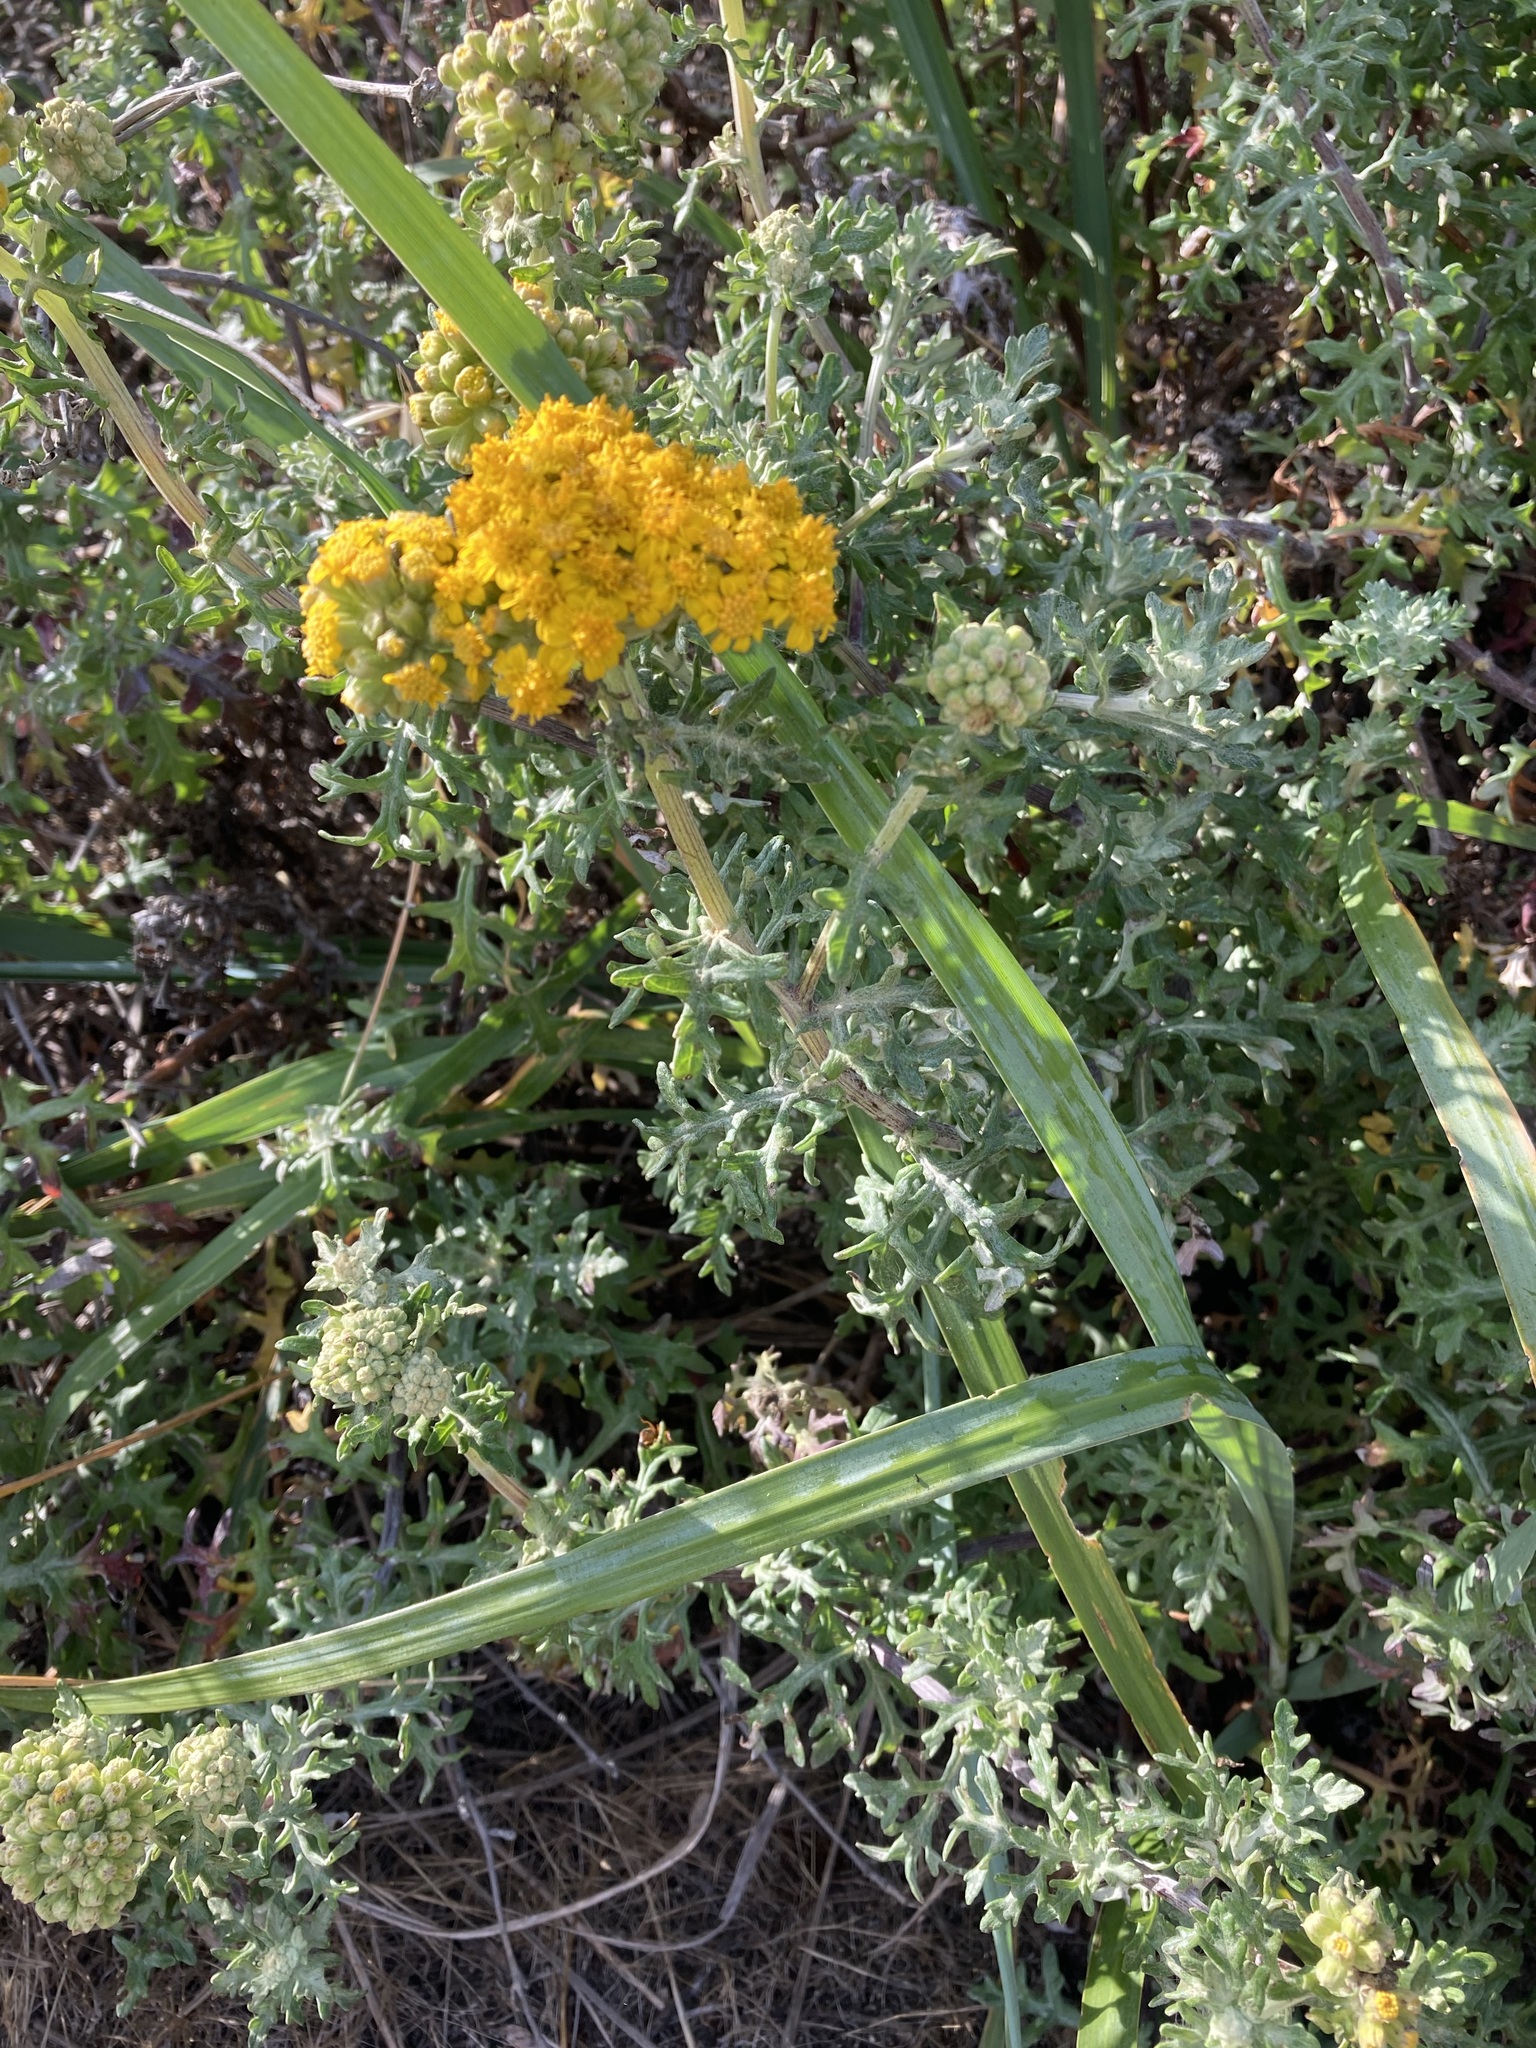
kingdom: Plantae
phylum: Tracheophyta
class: Magnoliopsida
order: Asterales
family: Asteraceae
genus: Eriophyllum
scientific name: Eriophyllum staechadifolium
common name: Lizardtail
